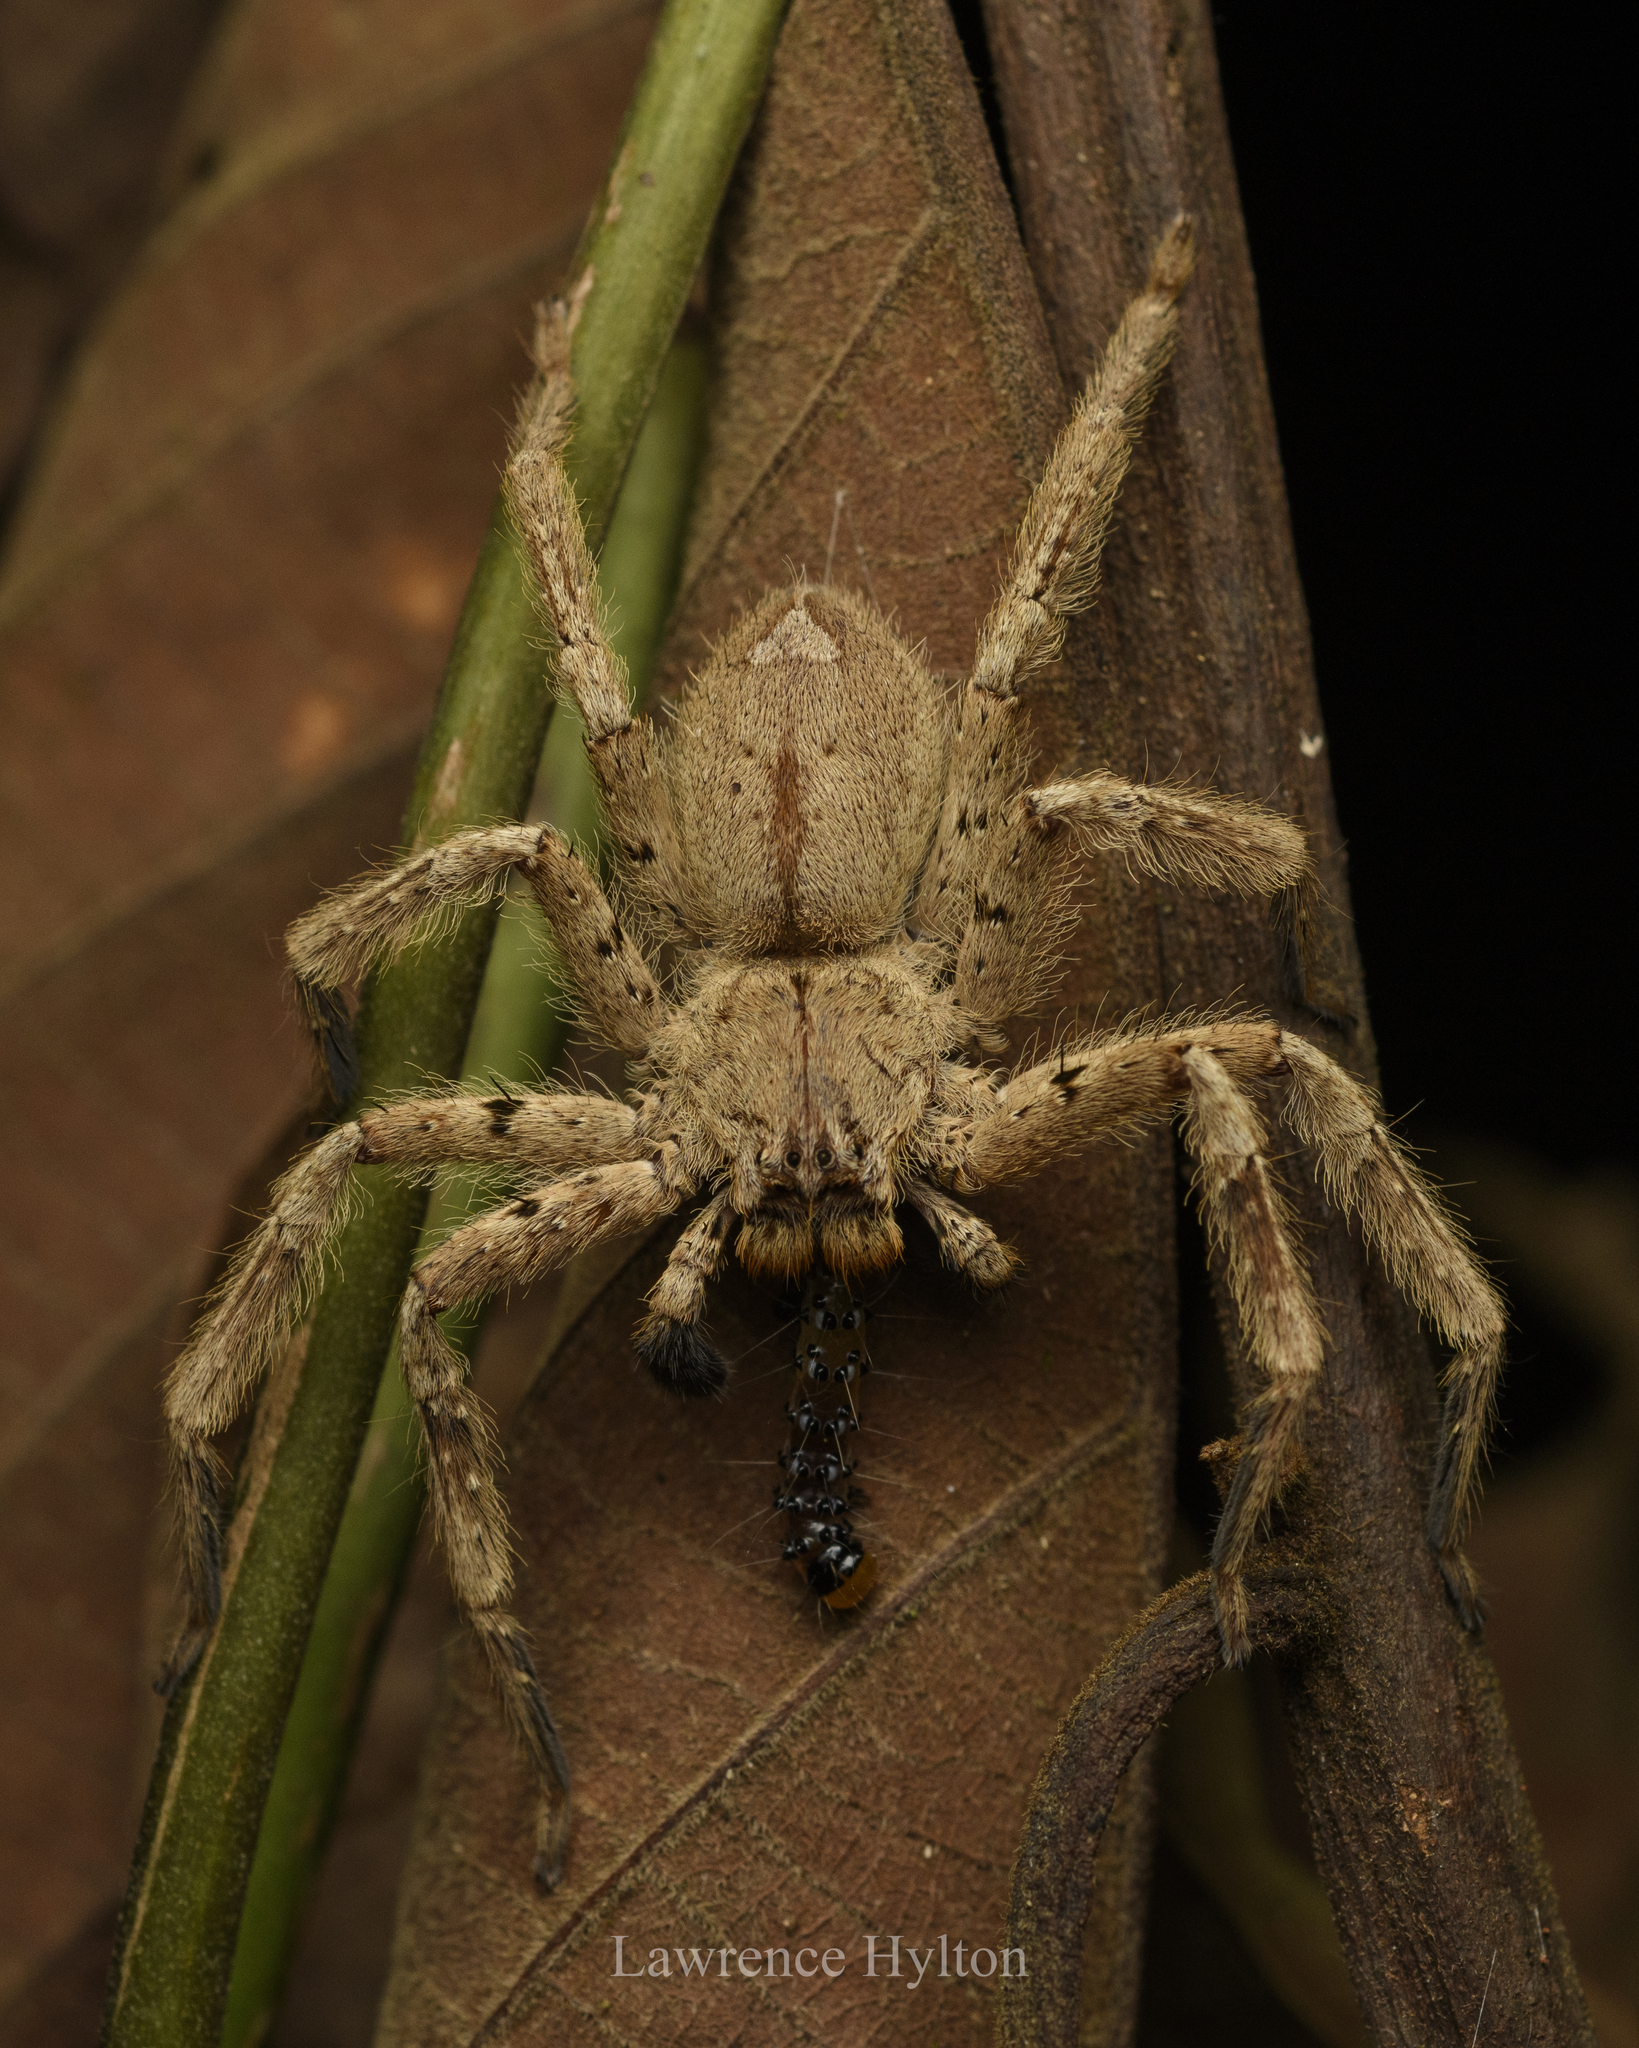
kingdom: Animalia
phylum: Arthropoda
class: Arachnida
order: Araneae
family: Sparassidae
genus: Heteropoda
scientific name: Heteropoda pingtungensis
